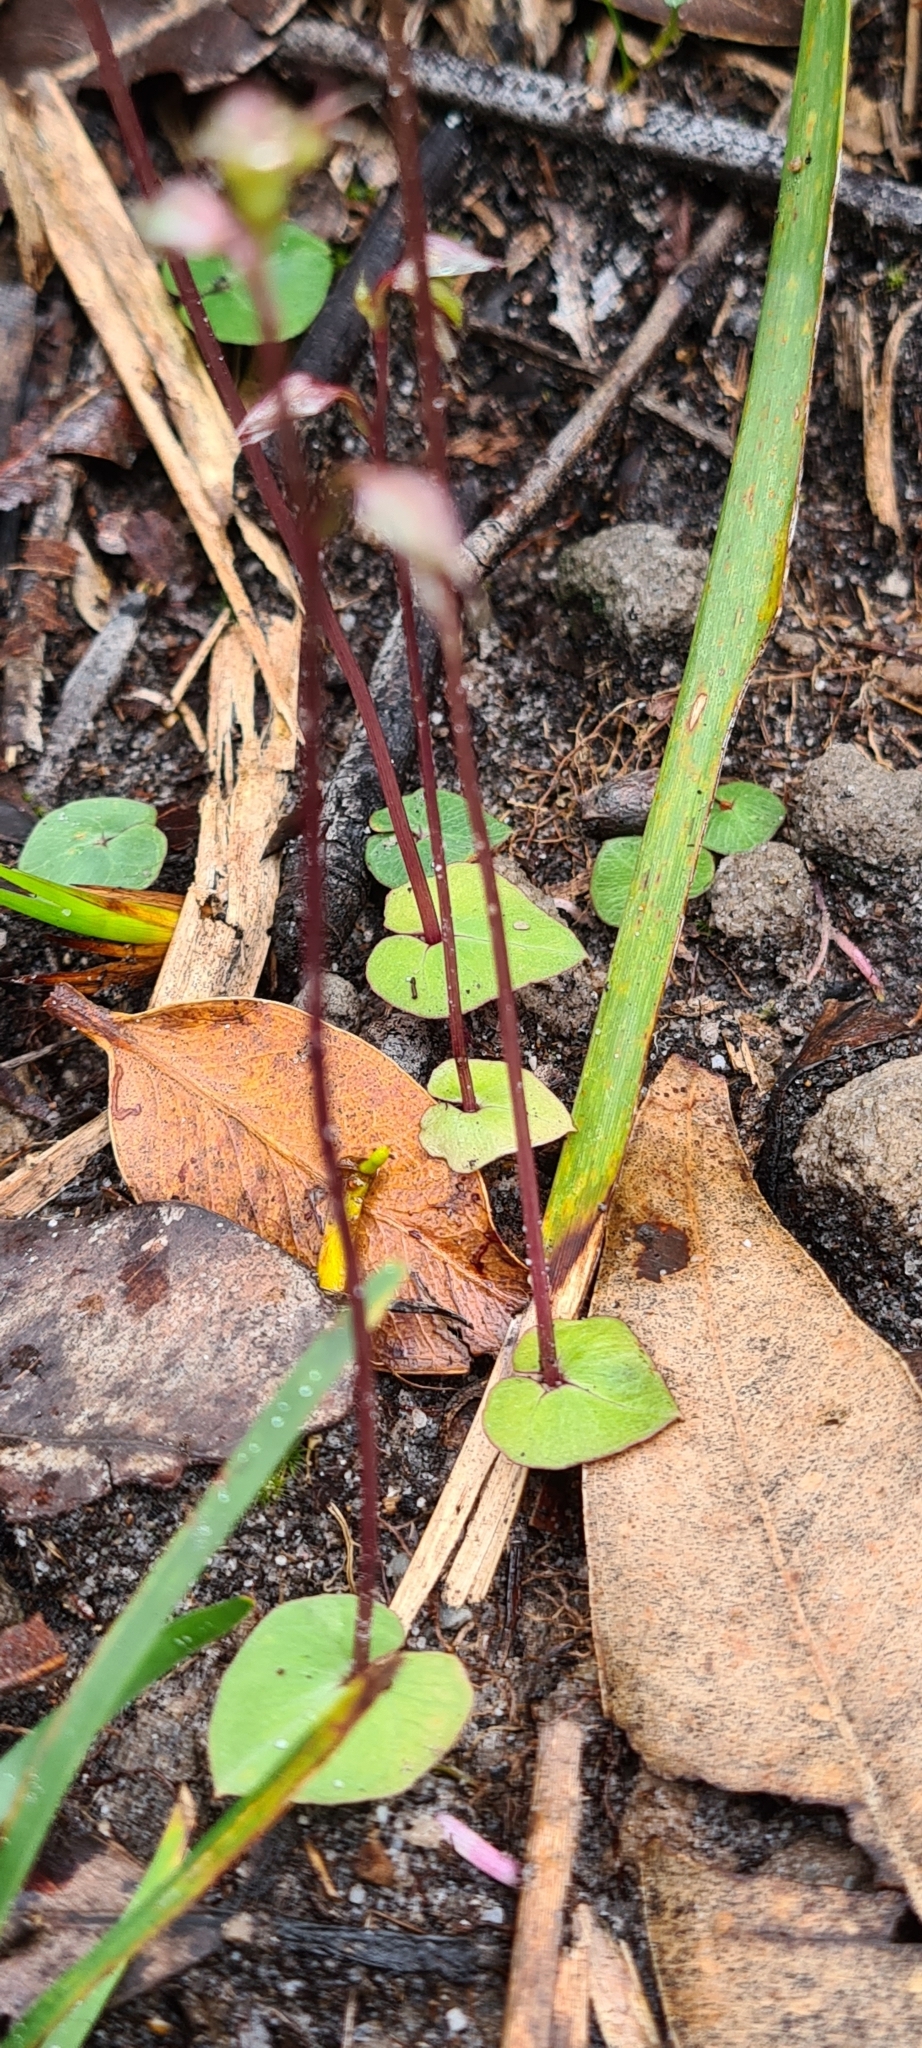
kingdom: Plantae
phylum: Tracheophyta
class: Liliopsida
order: Asparagales
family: Orchidaceae
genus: Acianthus
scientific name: Acianthus fornicatus
